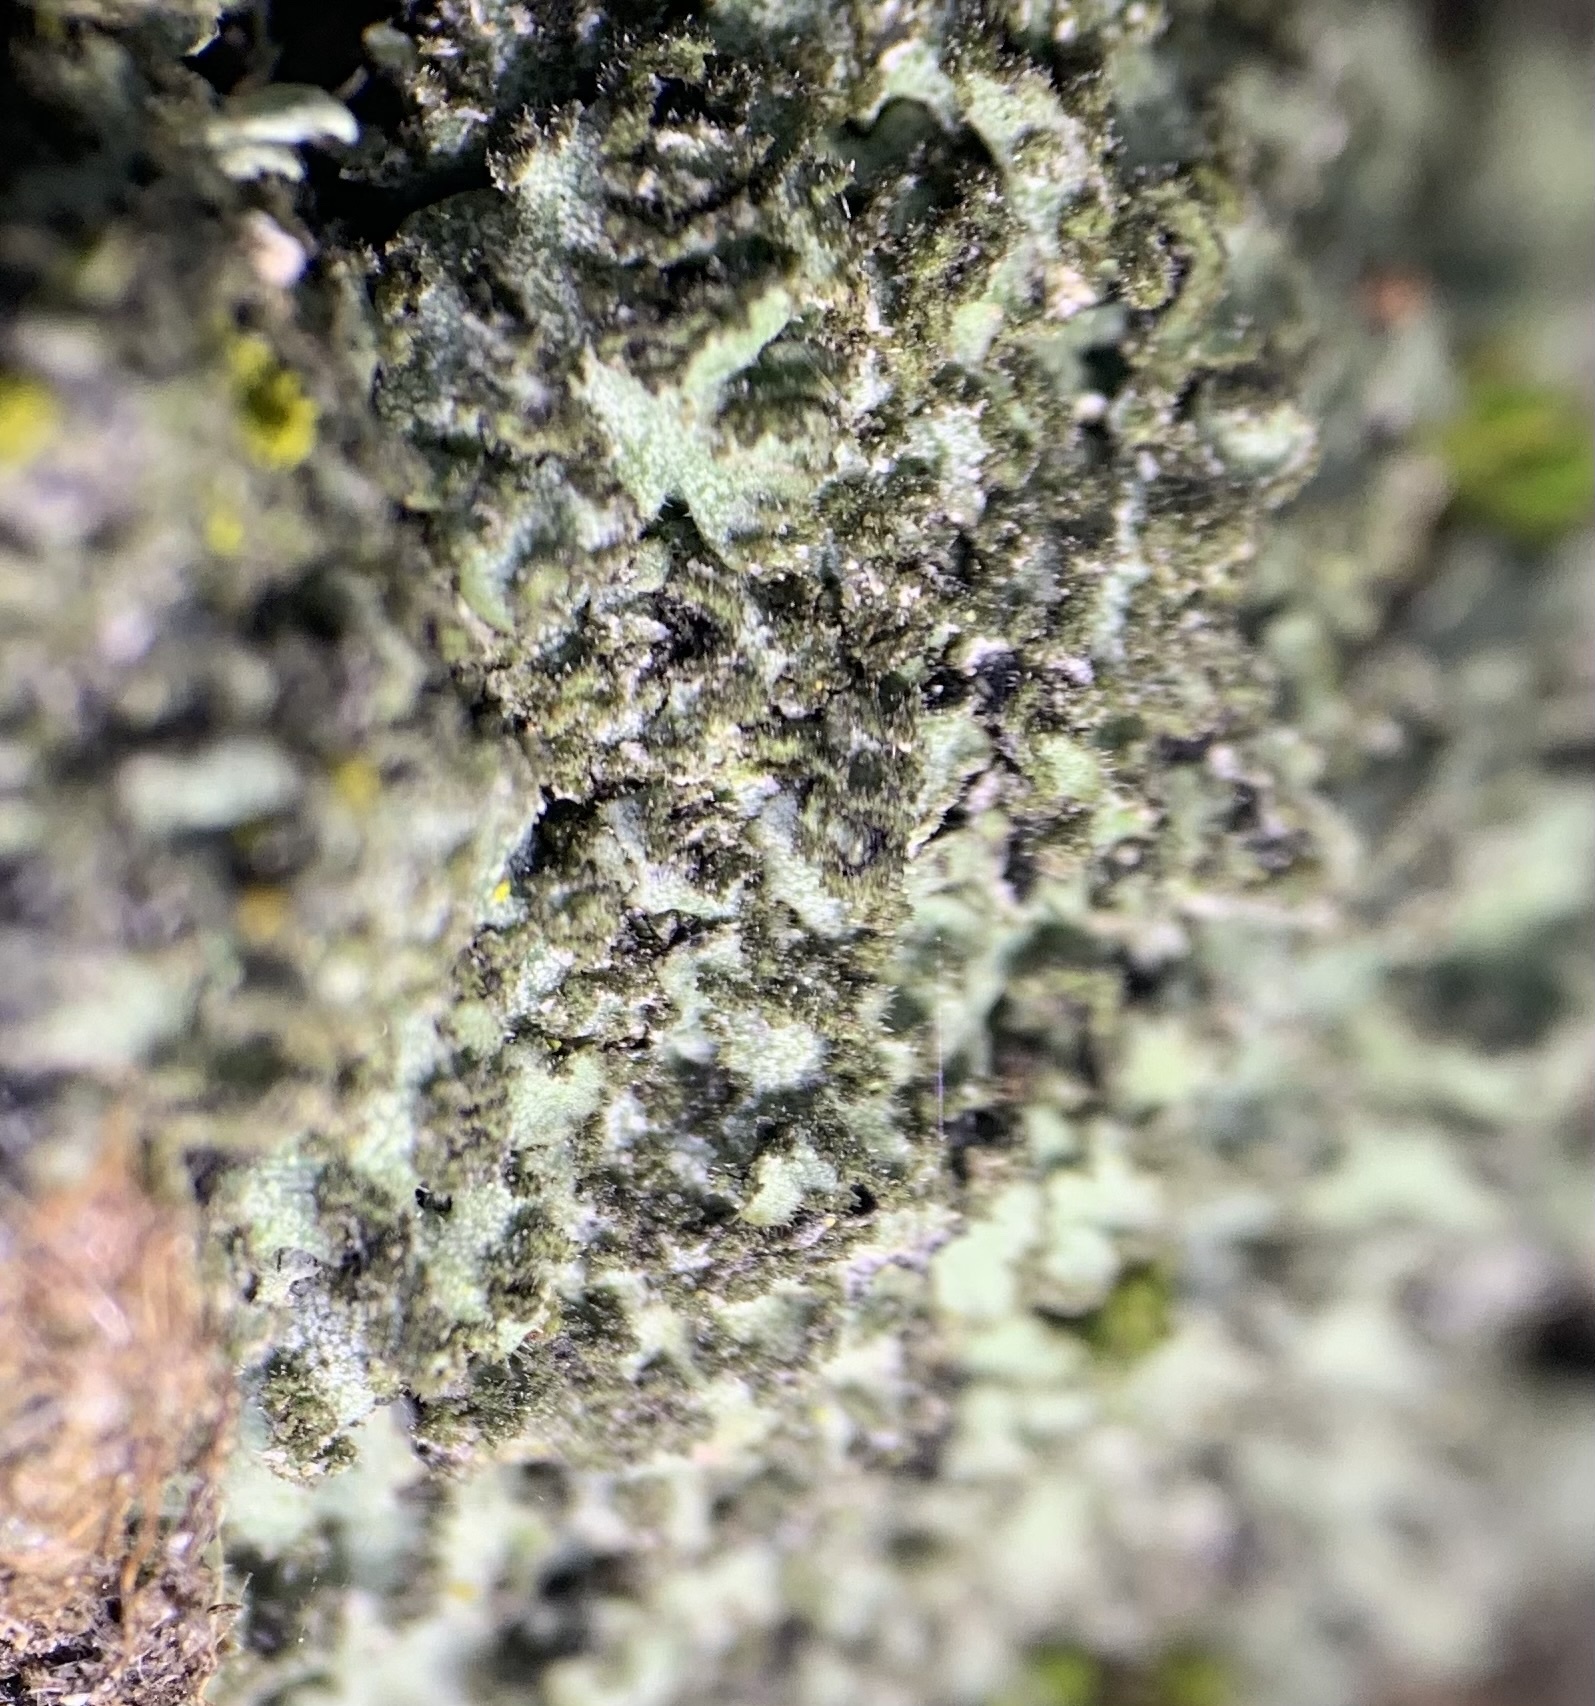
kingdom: Fungi
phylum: Ascomycota
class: Lecanoromycetes
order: Caliciales
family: Physciaceae
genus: Phaeophyscia
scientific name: Phaeophyscia kairamoi
